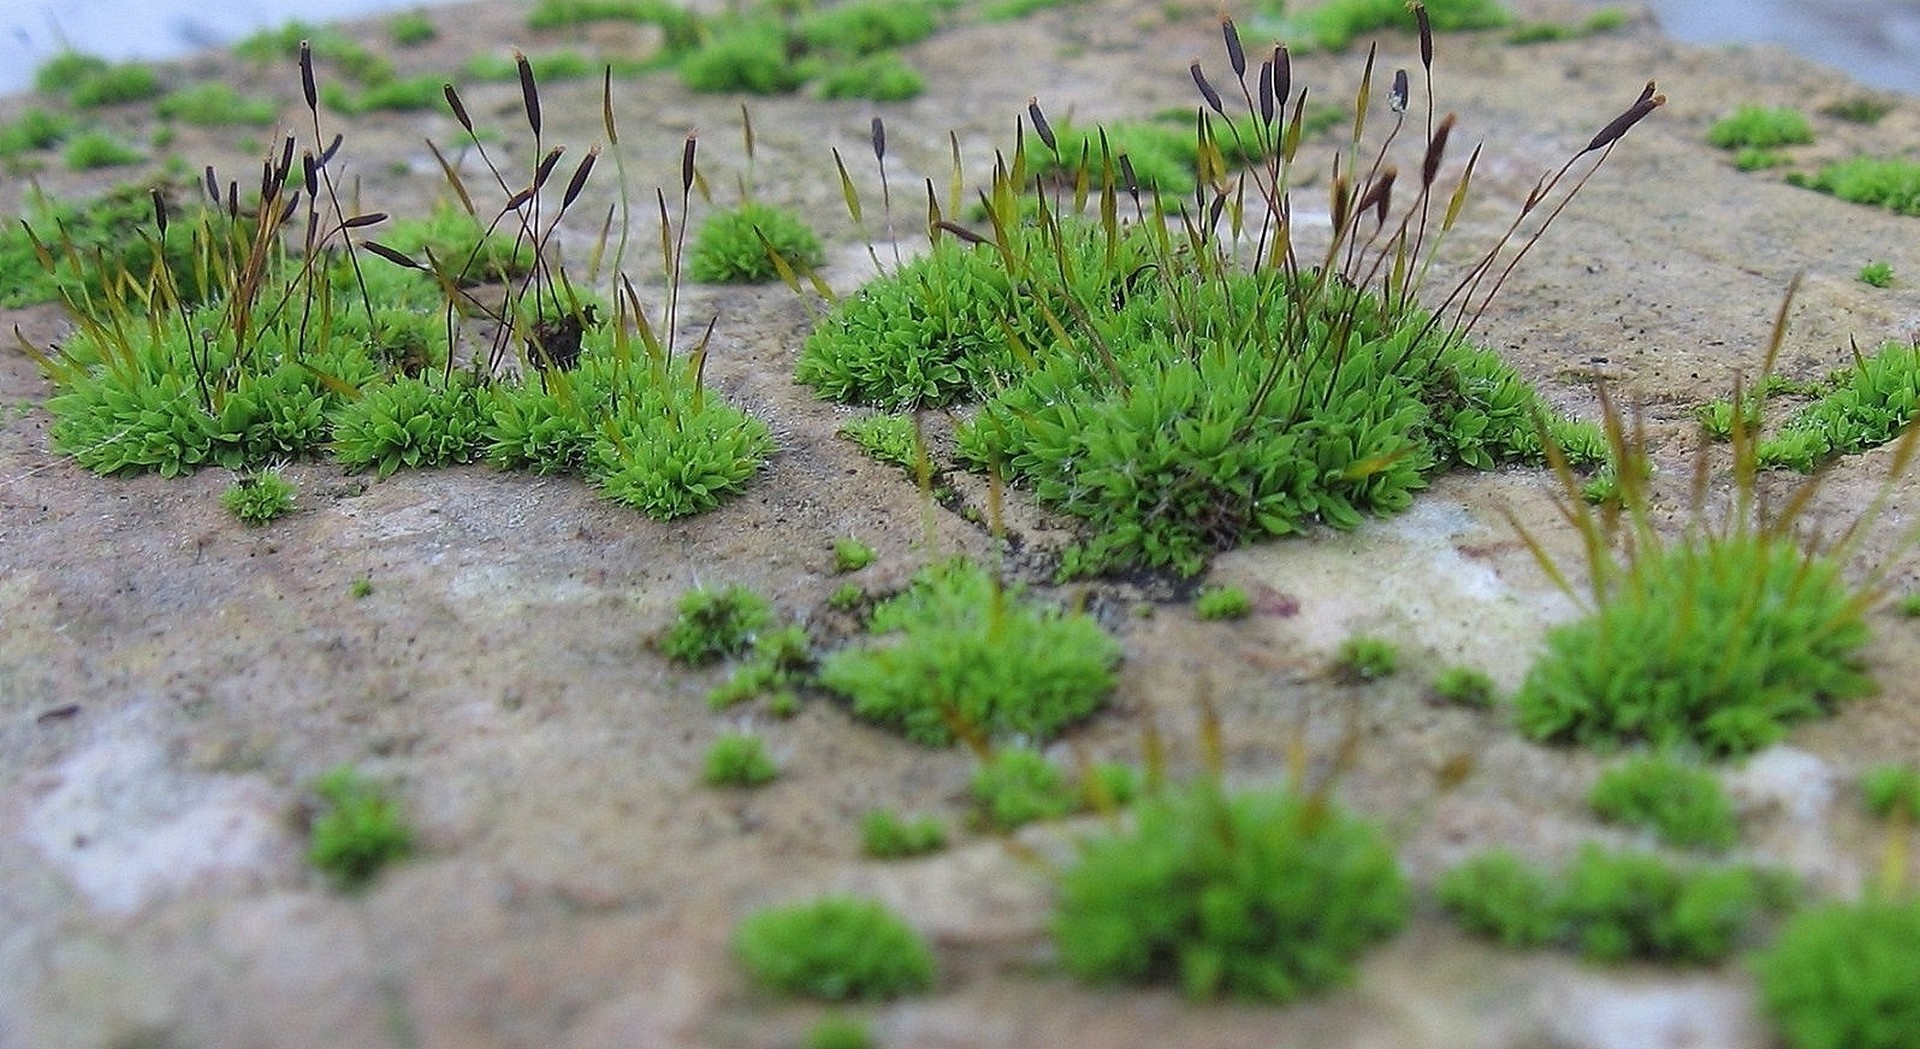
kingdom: Plantae
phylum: Bryophyta
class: Bryopsida
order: Pottiales
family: Pottiaceae
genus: Tortula
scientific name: Tortula muralis
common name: Wall screw-moss
